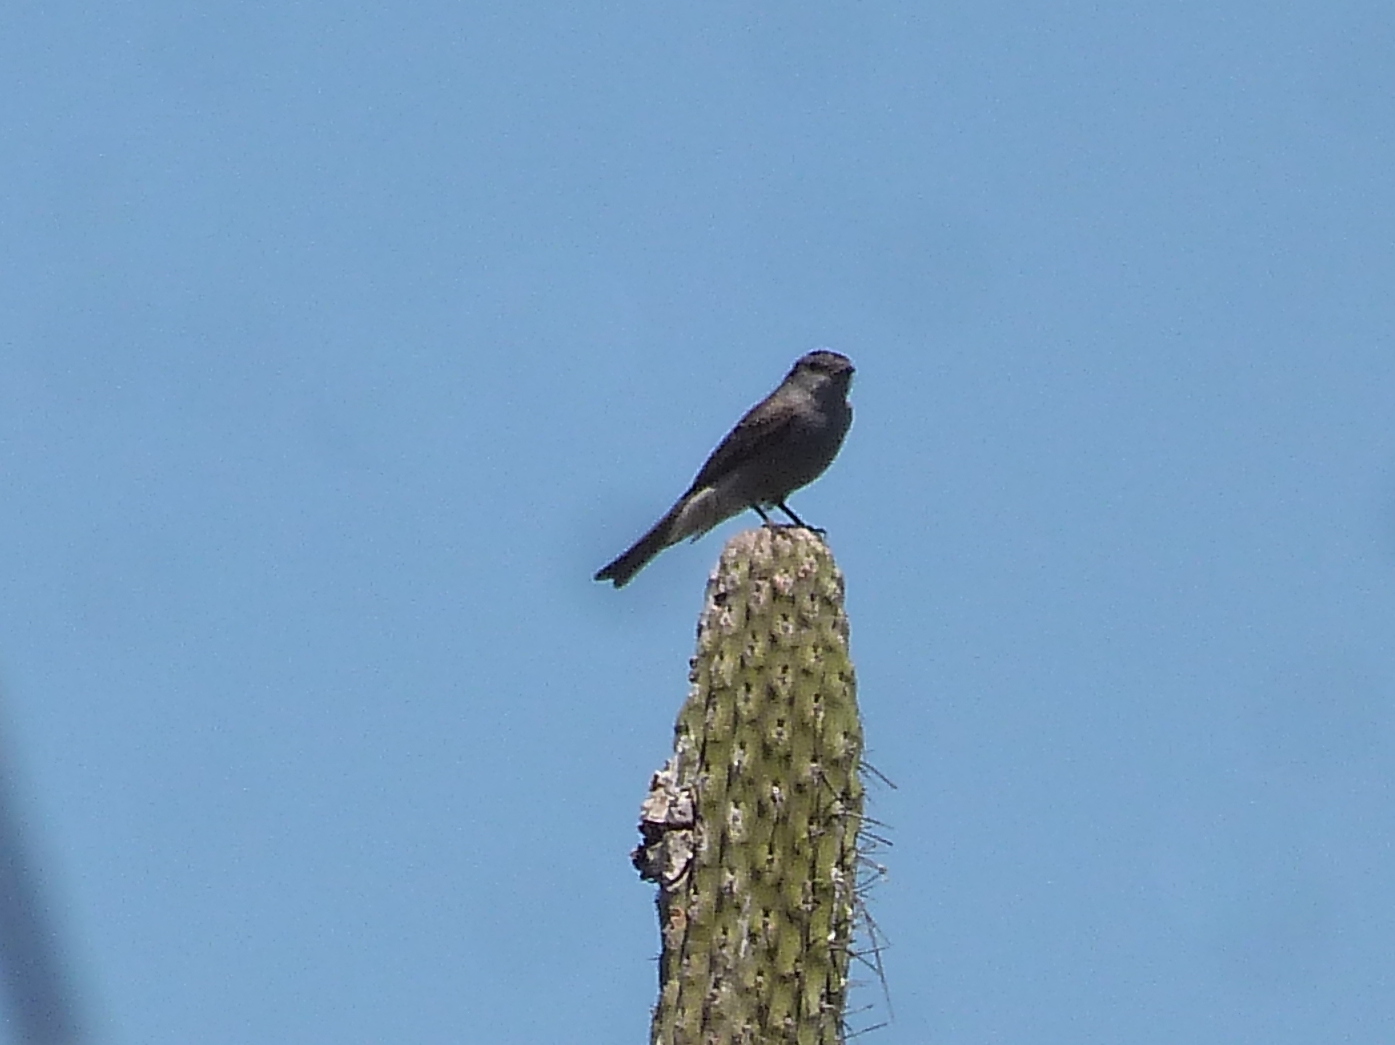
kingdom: Animalia
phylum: Chordata
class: Aves
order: Passeriformes
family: Tyrannidae
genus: Empidonomus
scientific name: Empidonomus aurantioatrocristatus
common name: Crowned slaty flycatcher
